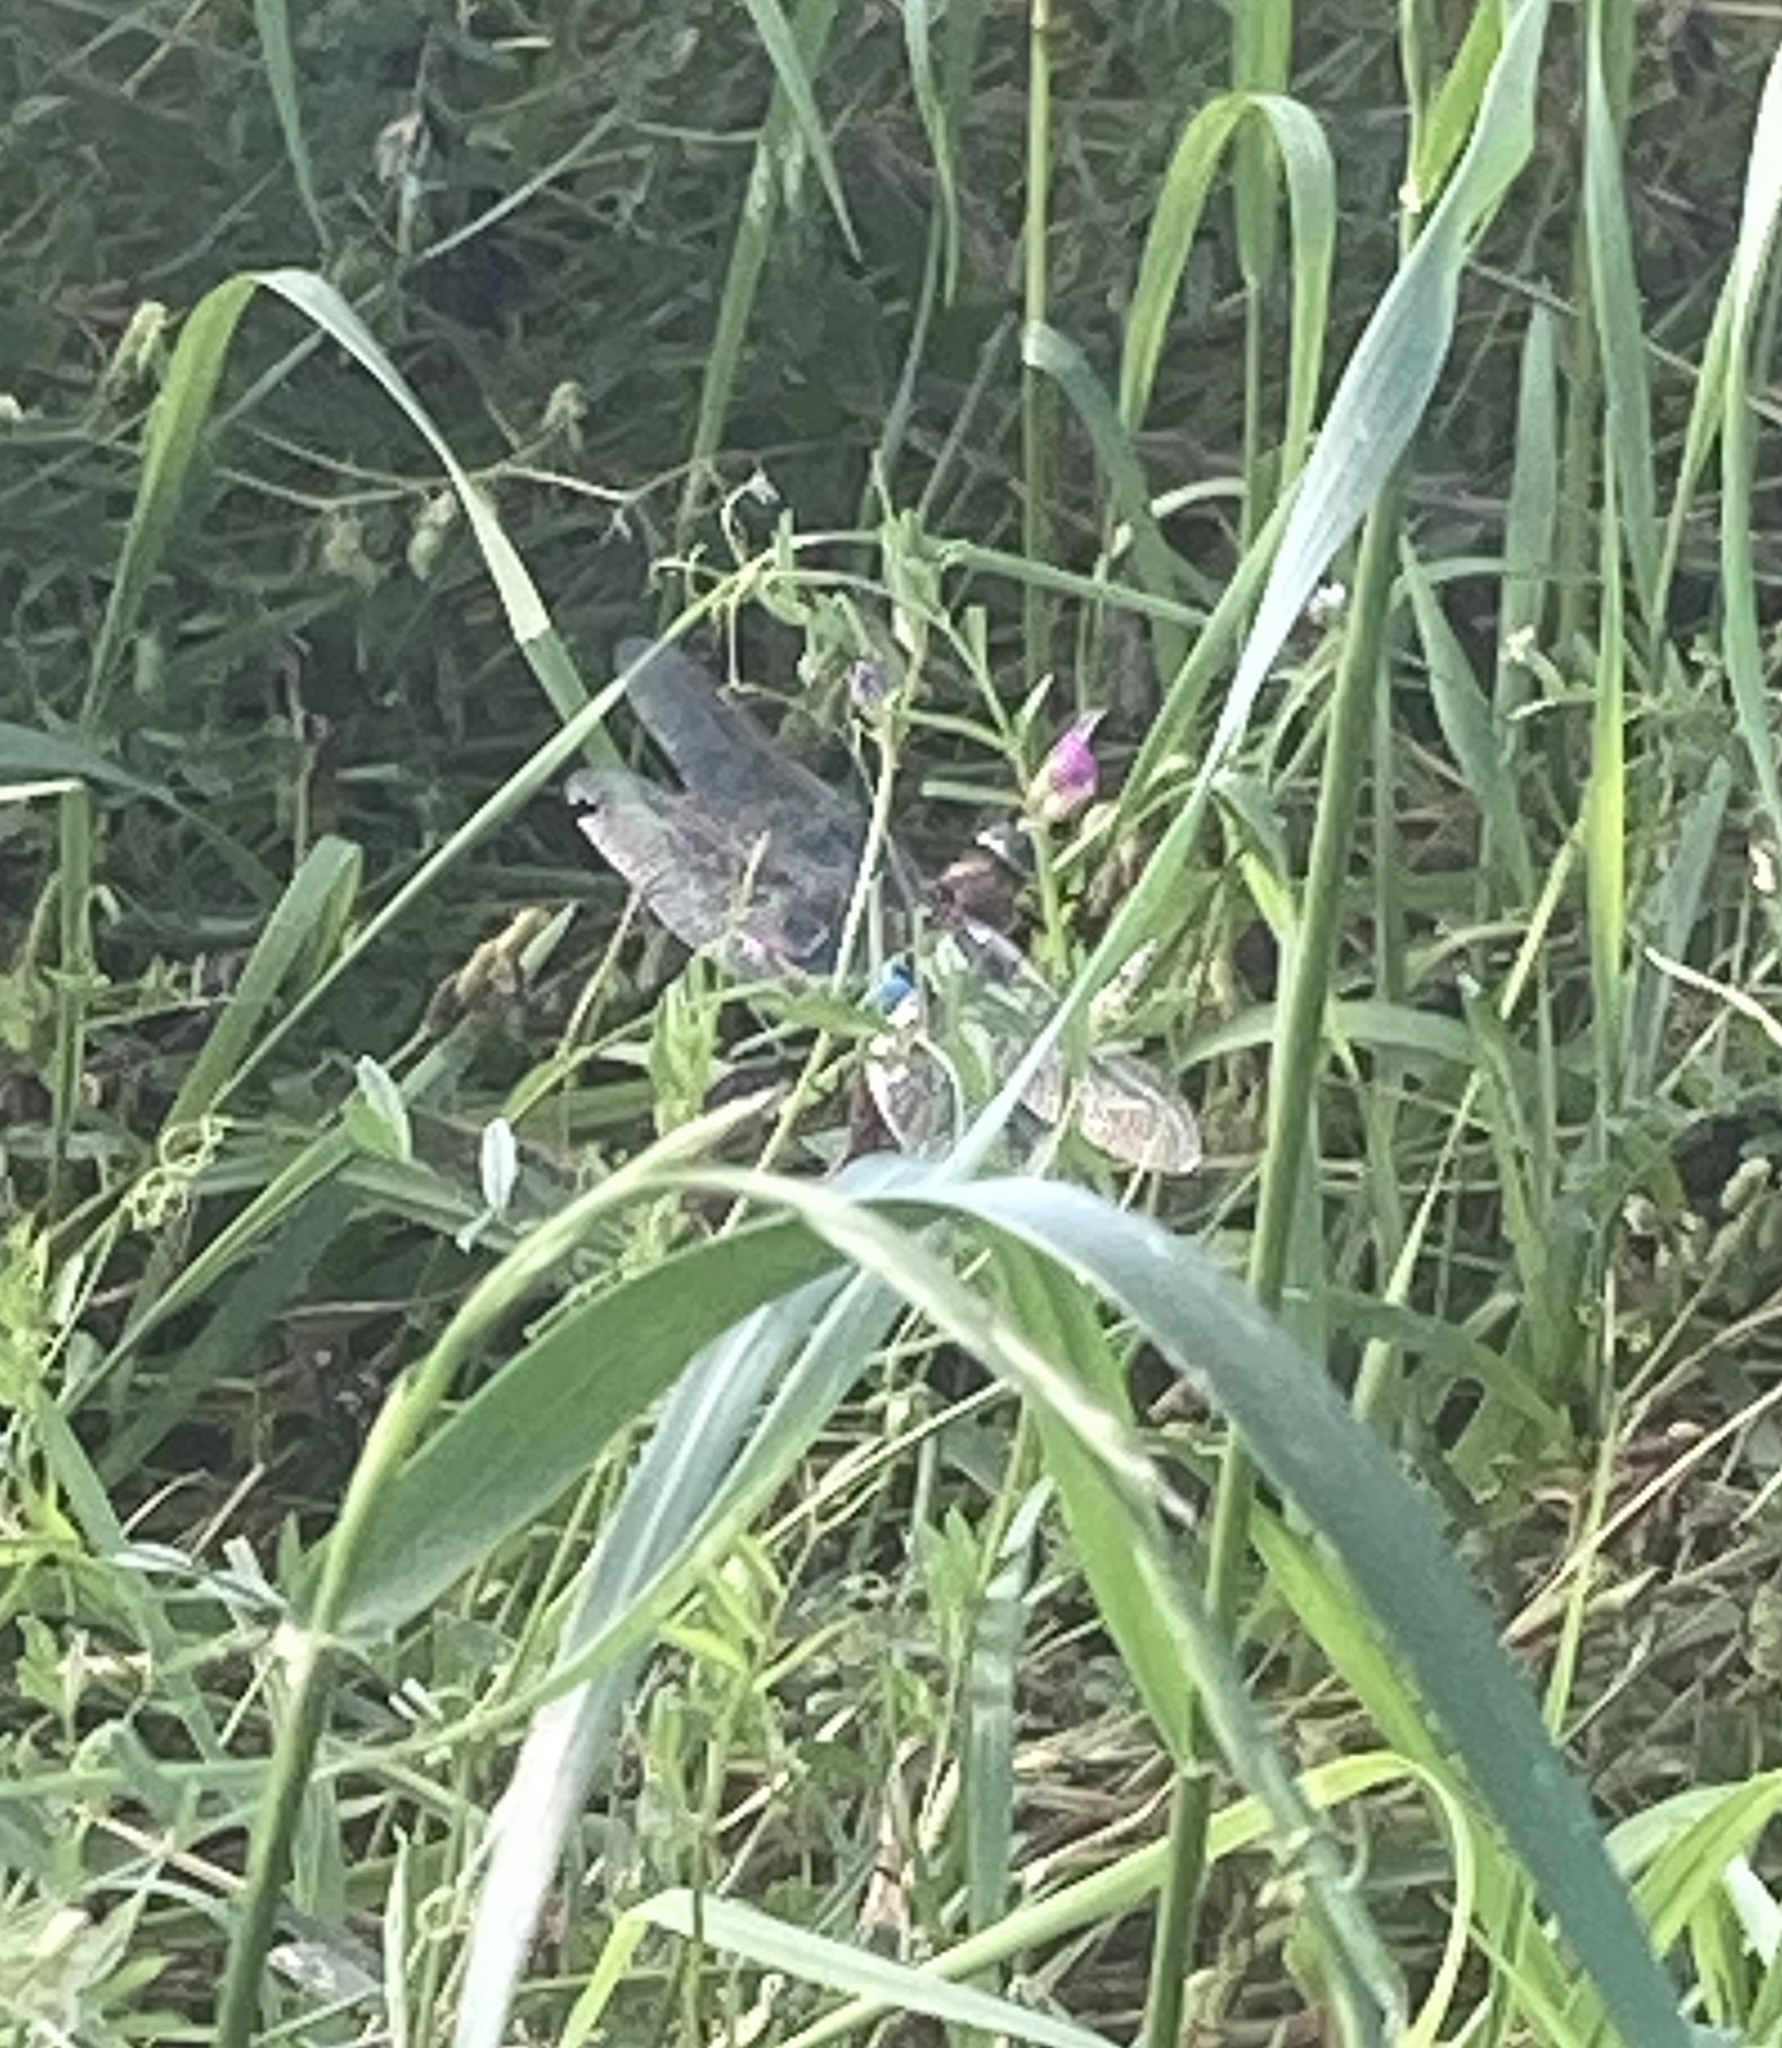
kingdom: Animalia
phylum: Arthropoda
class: Insecta
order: Odonata
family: Aeshnidae
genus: Anax
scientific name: Anax parthenope
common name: Lesser emperor
